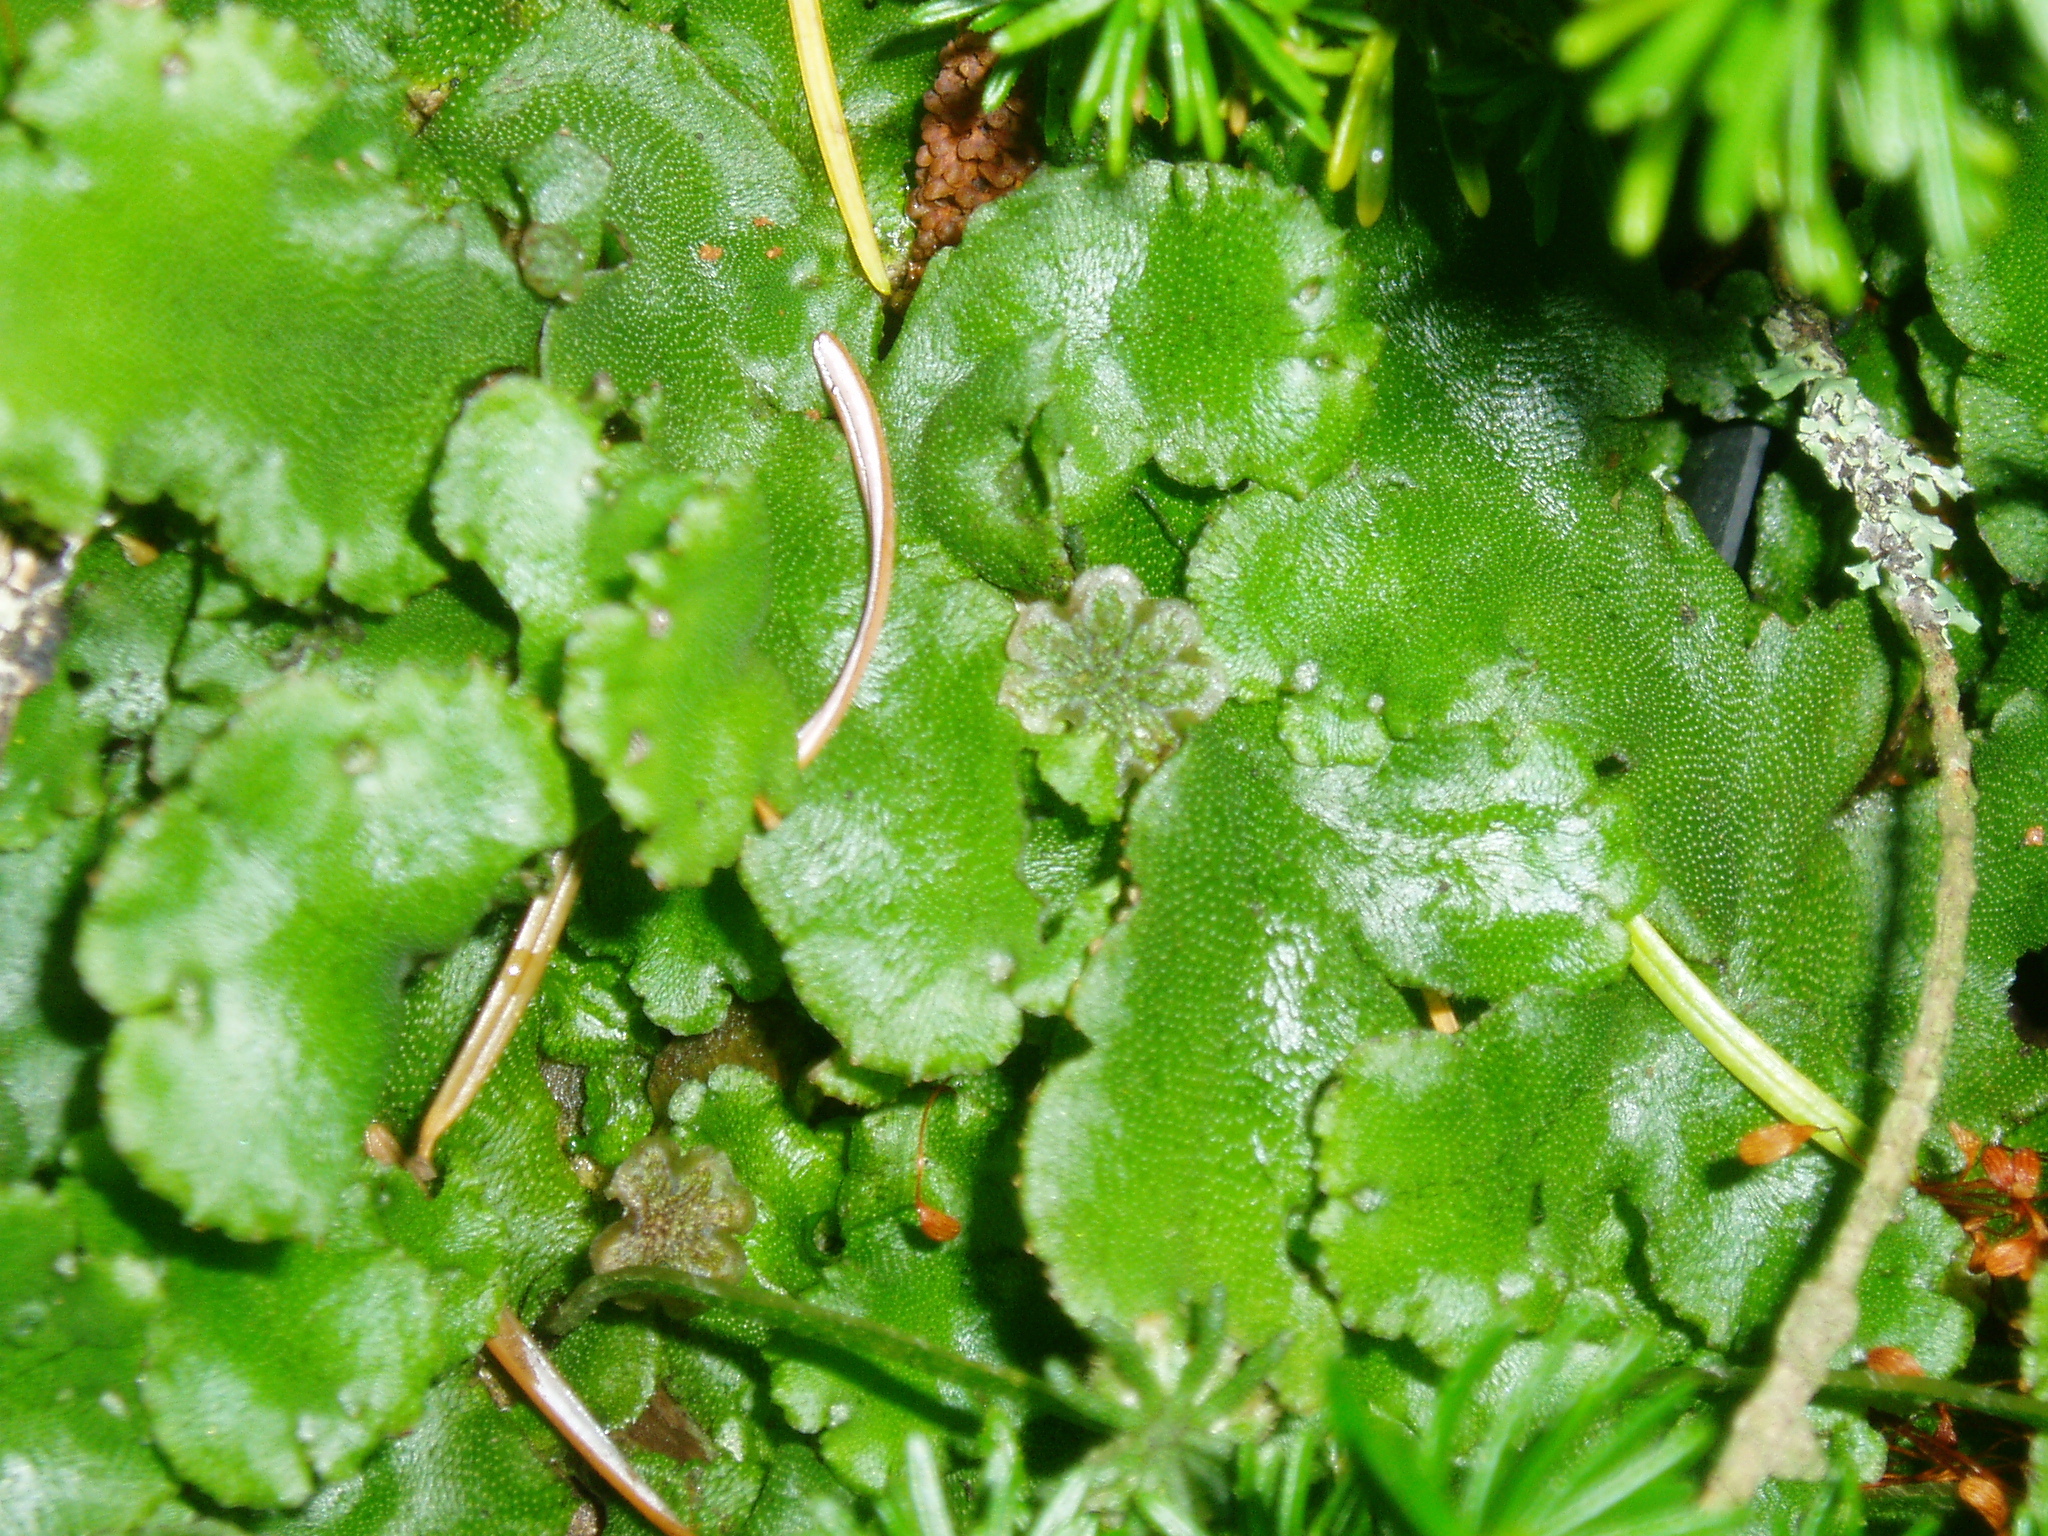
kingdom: Plantae
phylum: Marchantiophyta
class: Marchantiopsida
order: Marchantiales
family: Marchantiaceae
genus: Marchantia
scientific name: Marchantia polymorpha
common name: Common liverwort
